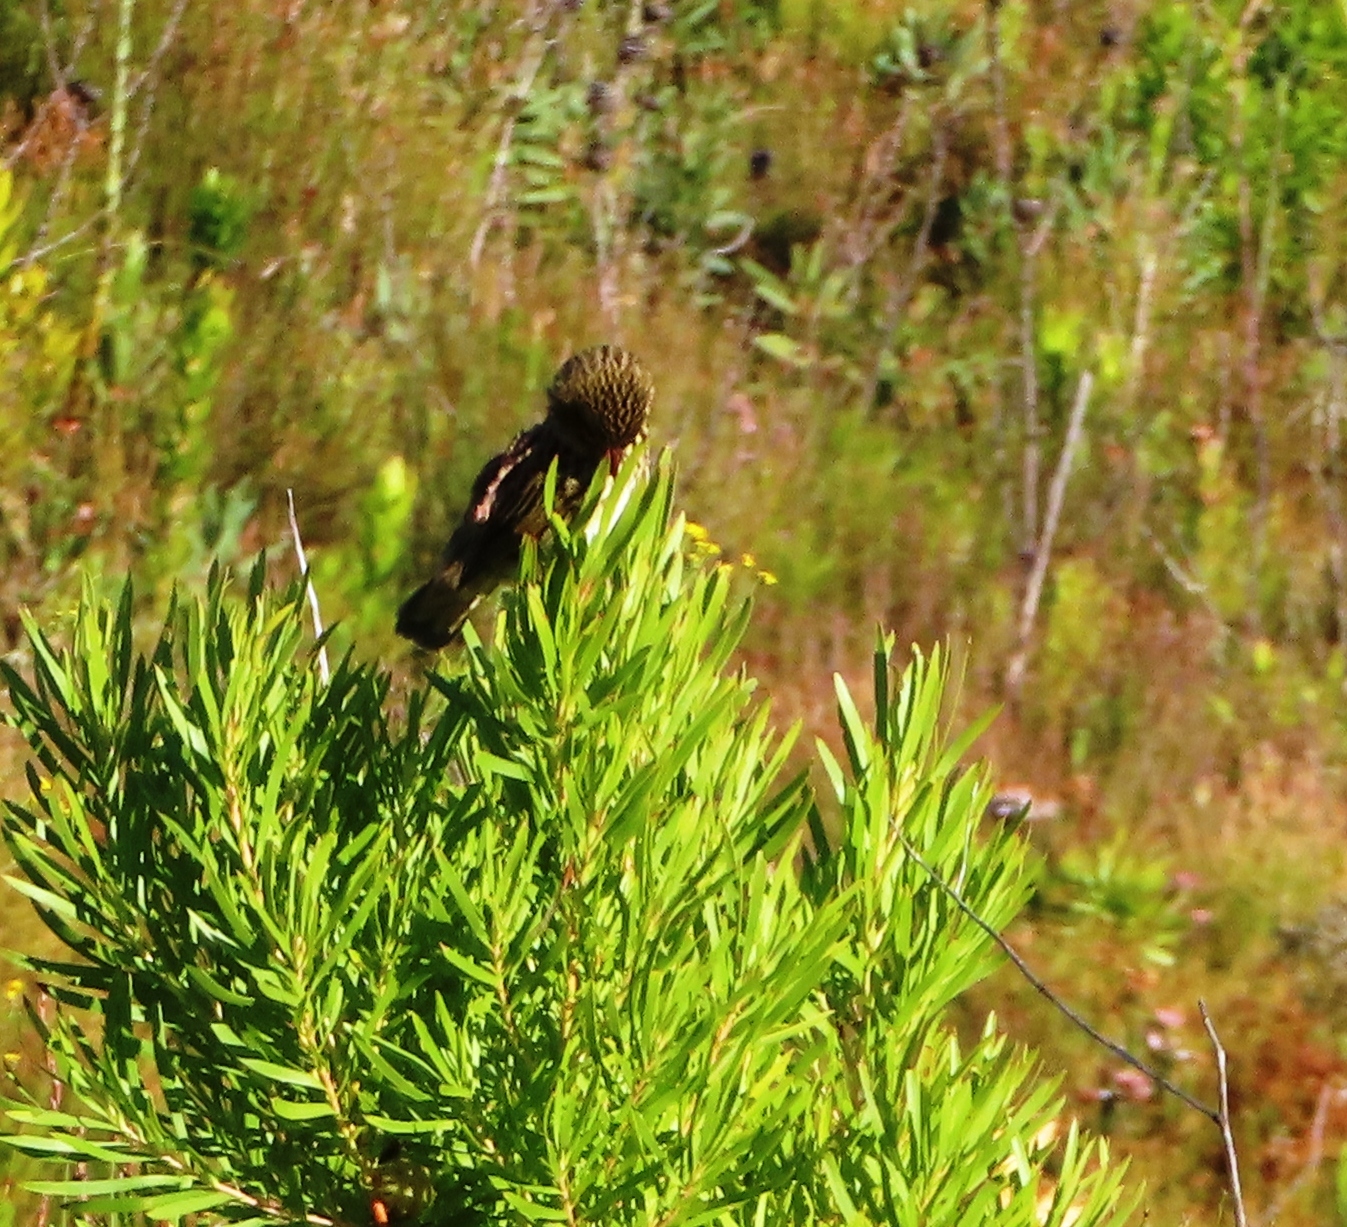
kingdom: Animalia
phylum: Chordata
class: Aves
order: Passeriformes
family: Ploceidae
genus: Euplectes
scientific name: Euplectes capensis
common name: Yellow bishop
